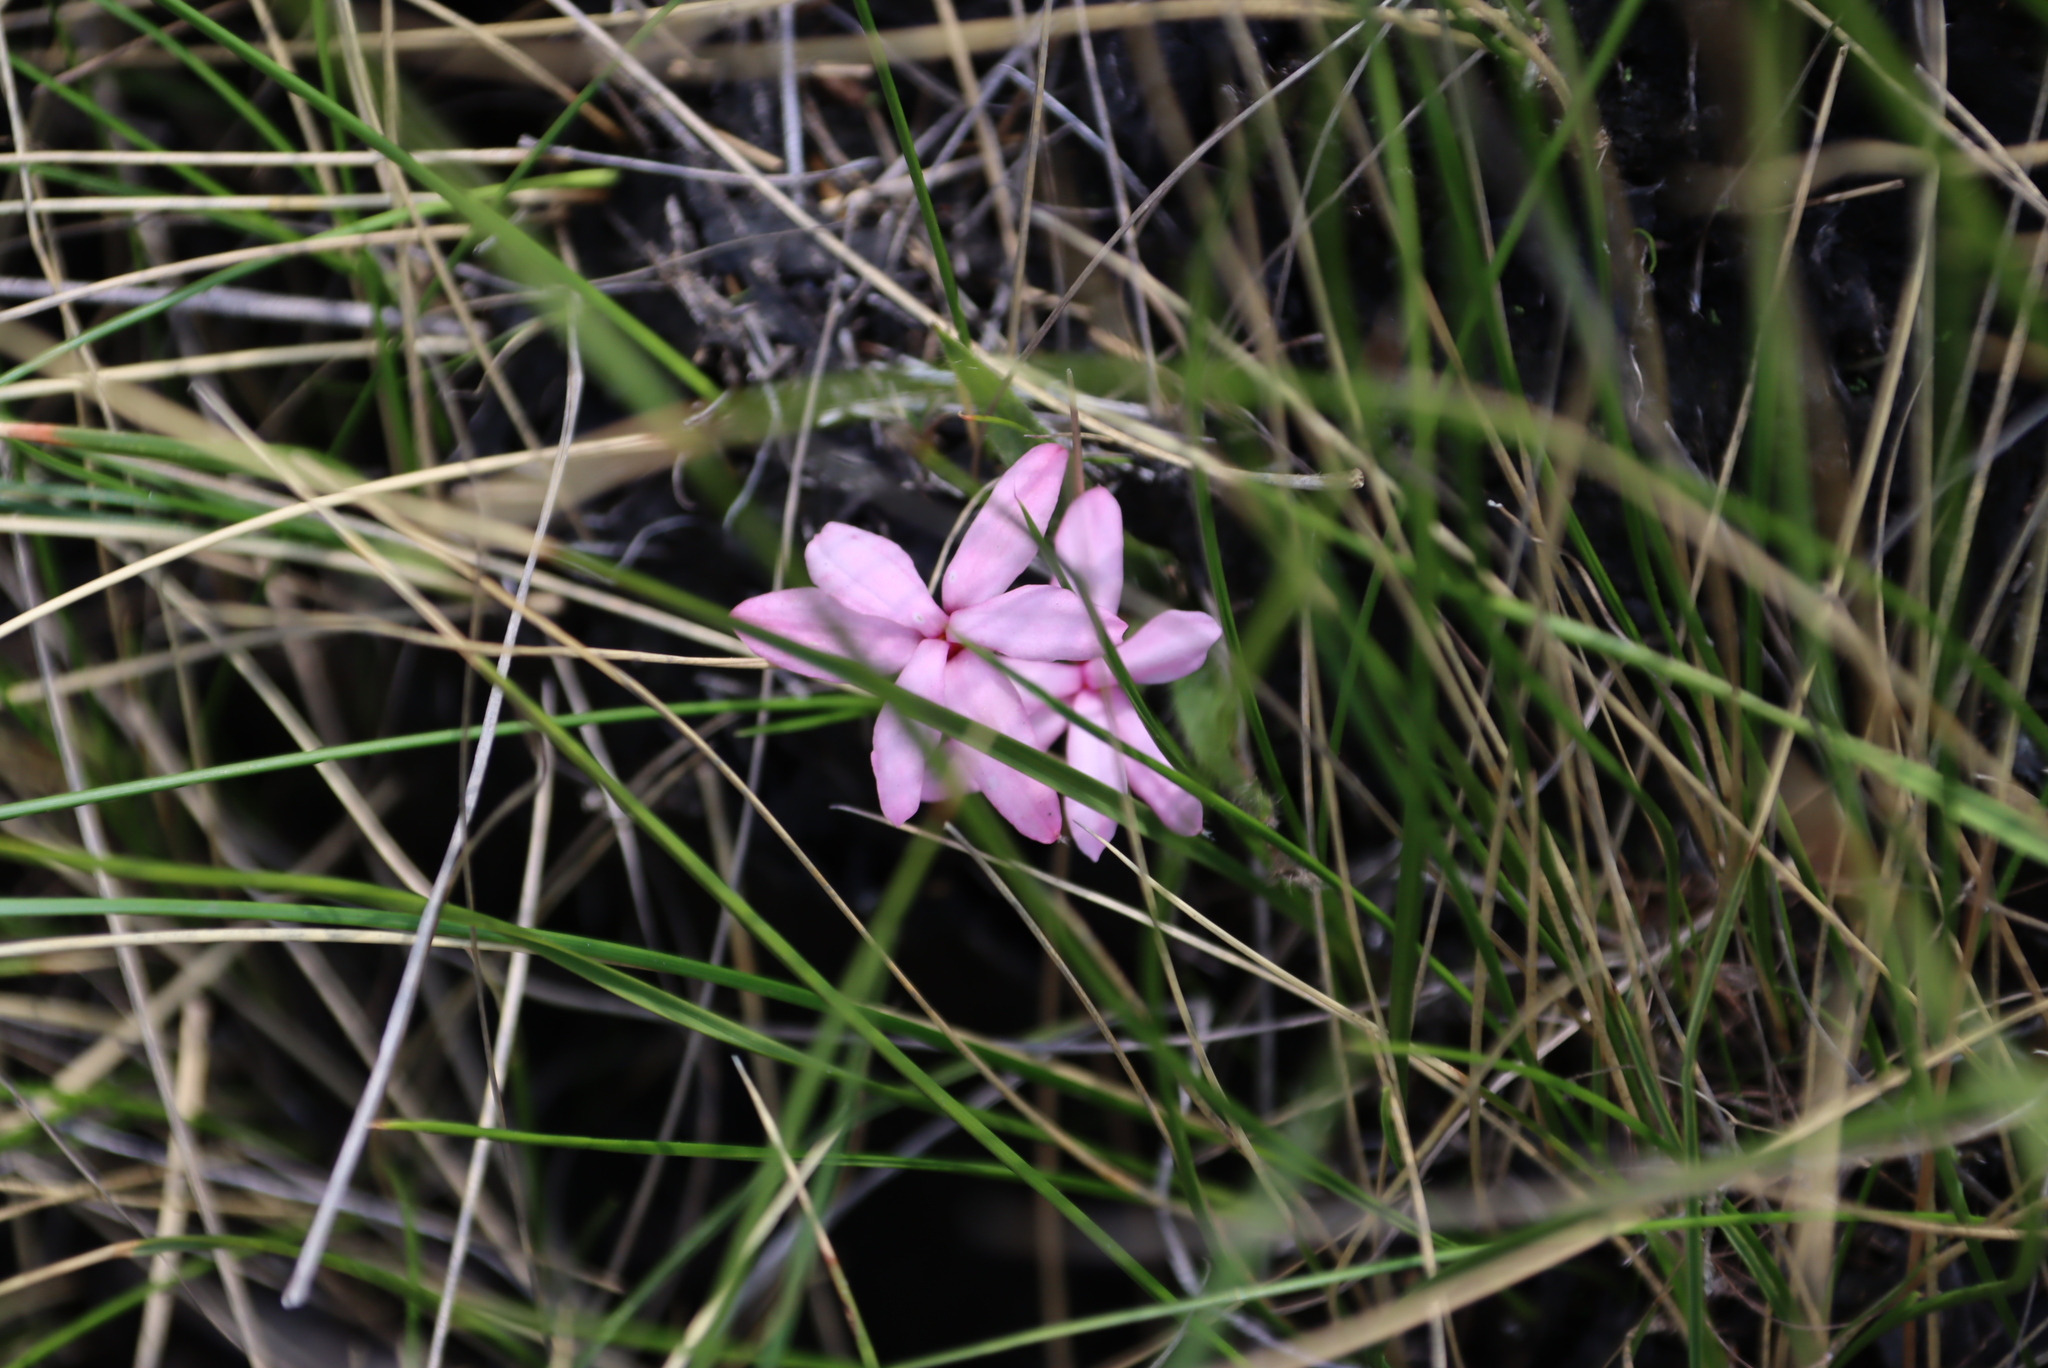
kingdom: Plantae
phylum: Tracheophyta
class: Liliopsida
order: Asparagales
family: Hypoxidaceae
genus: Hypoxis
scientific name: Hypoxis baurii
